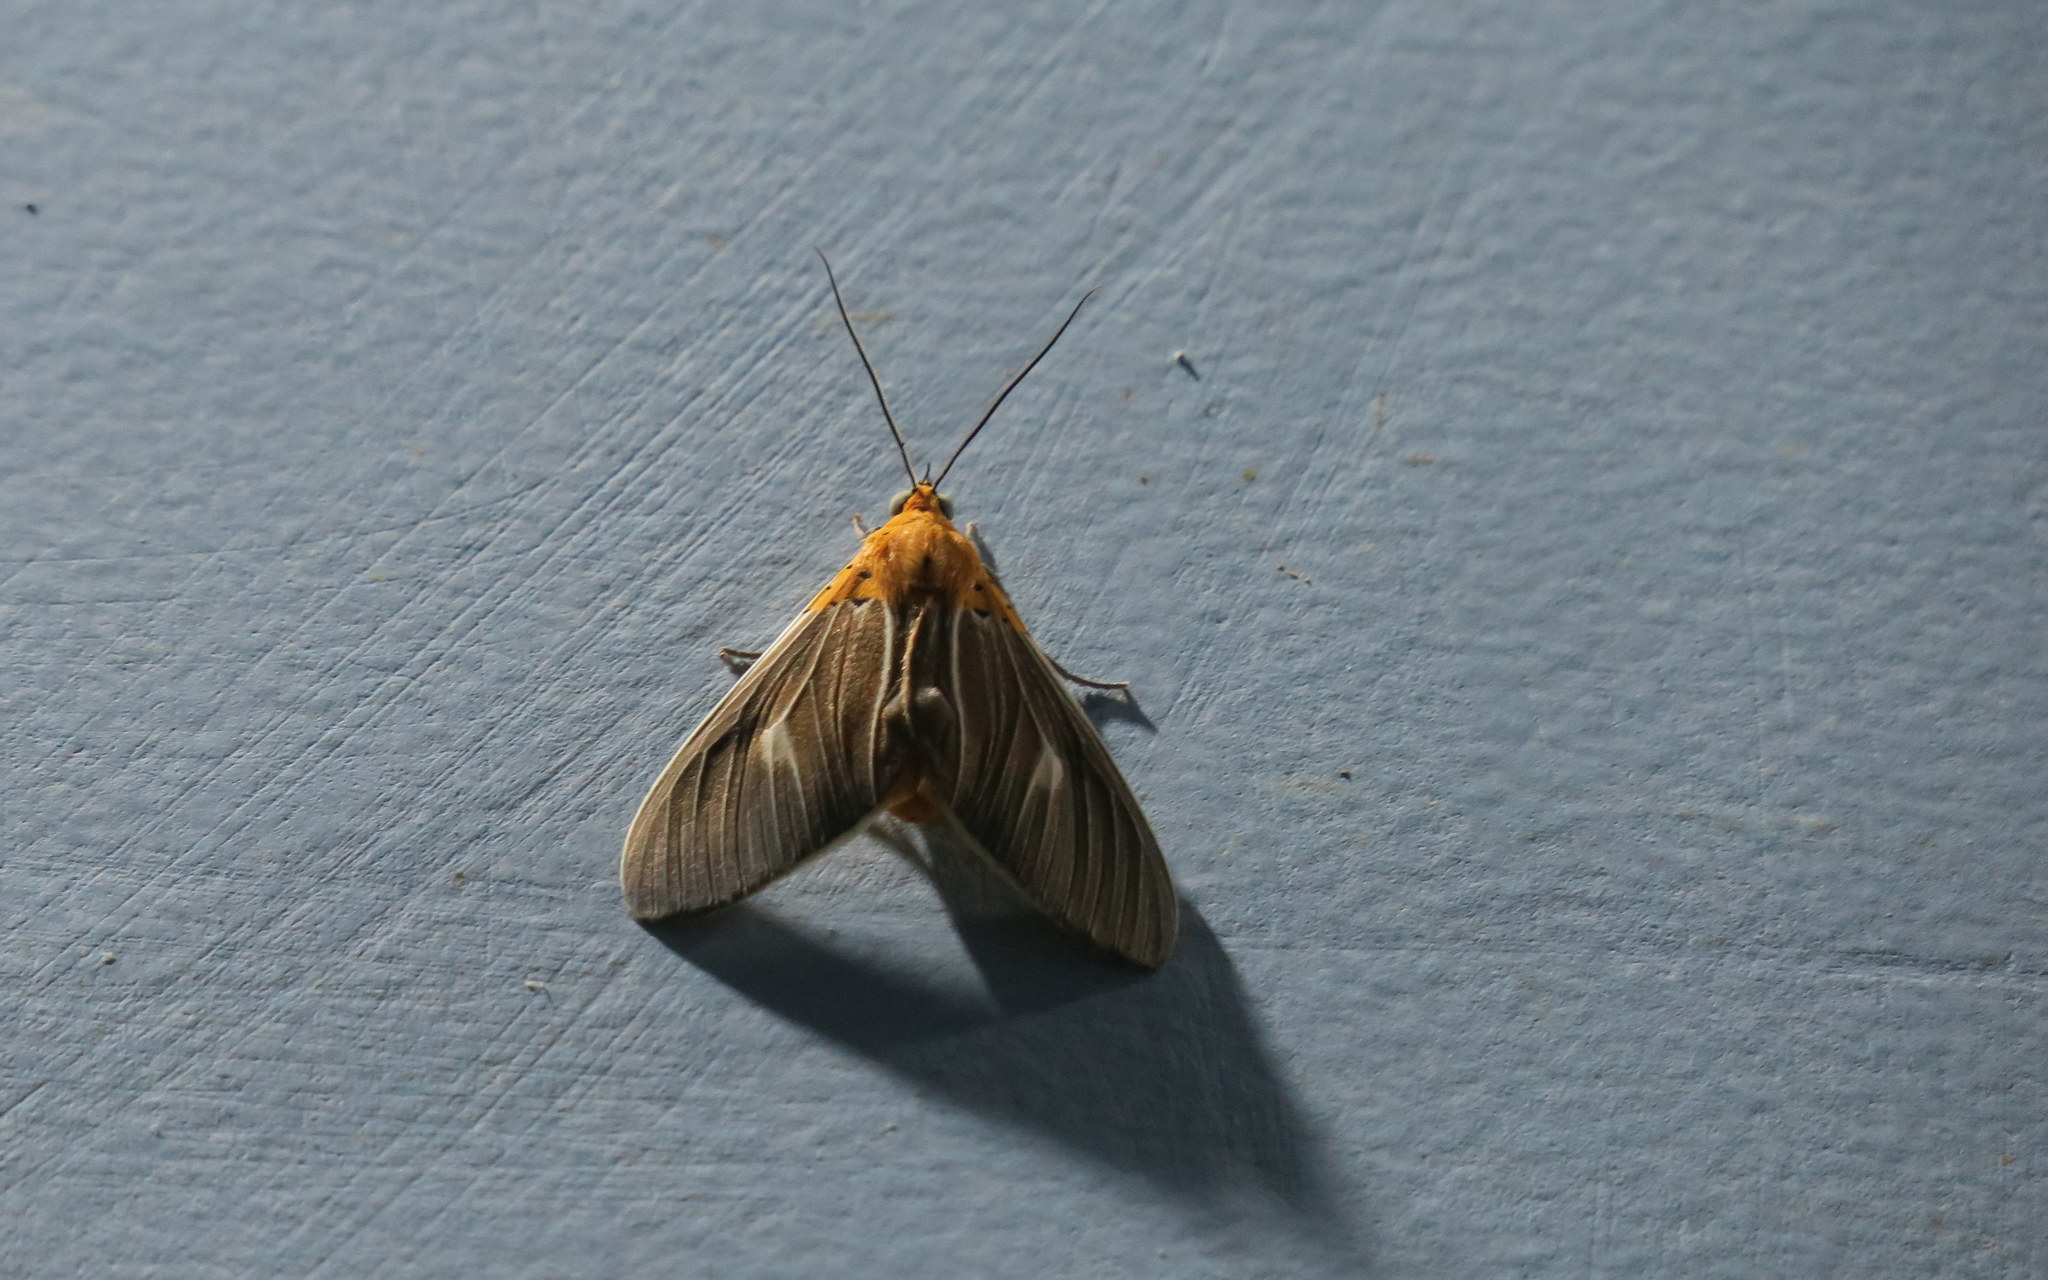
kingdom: Animalia
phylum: Arthropoda
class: Insecta
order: Lepidoptera
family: Erebidae
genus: Asota
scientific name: Asota producta
